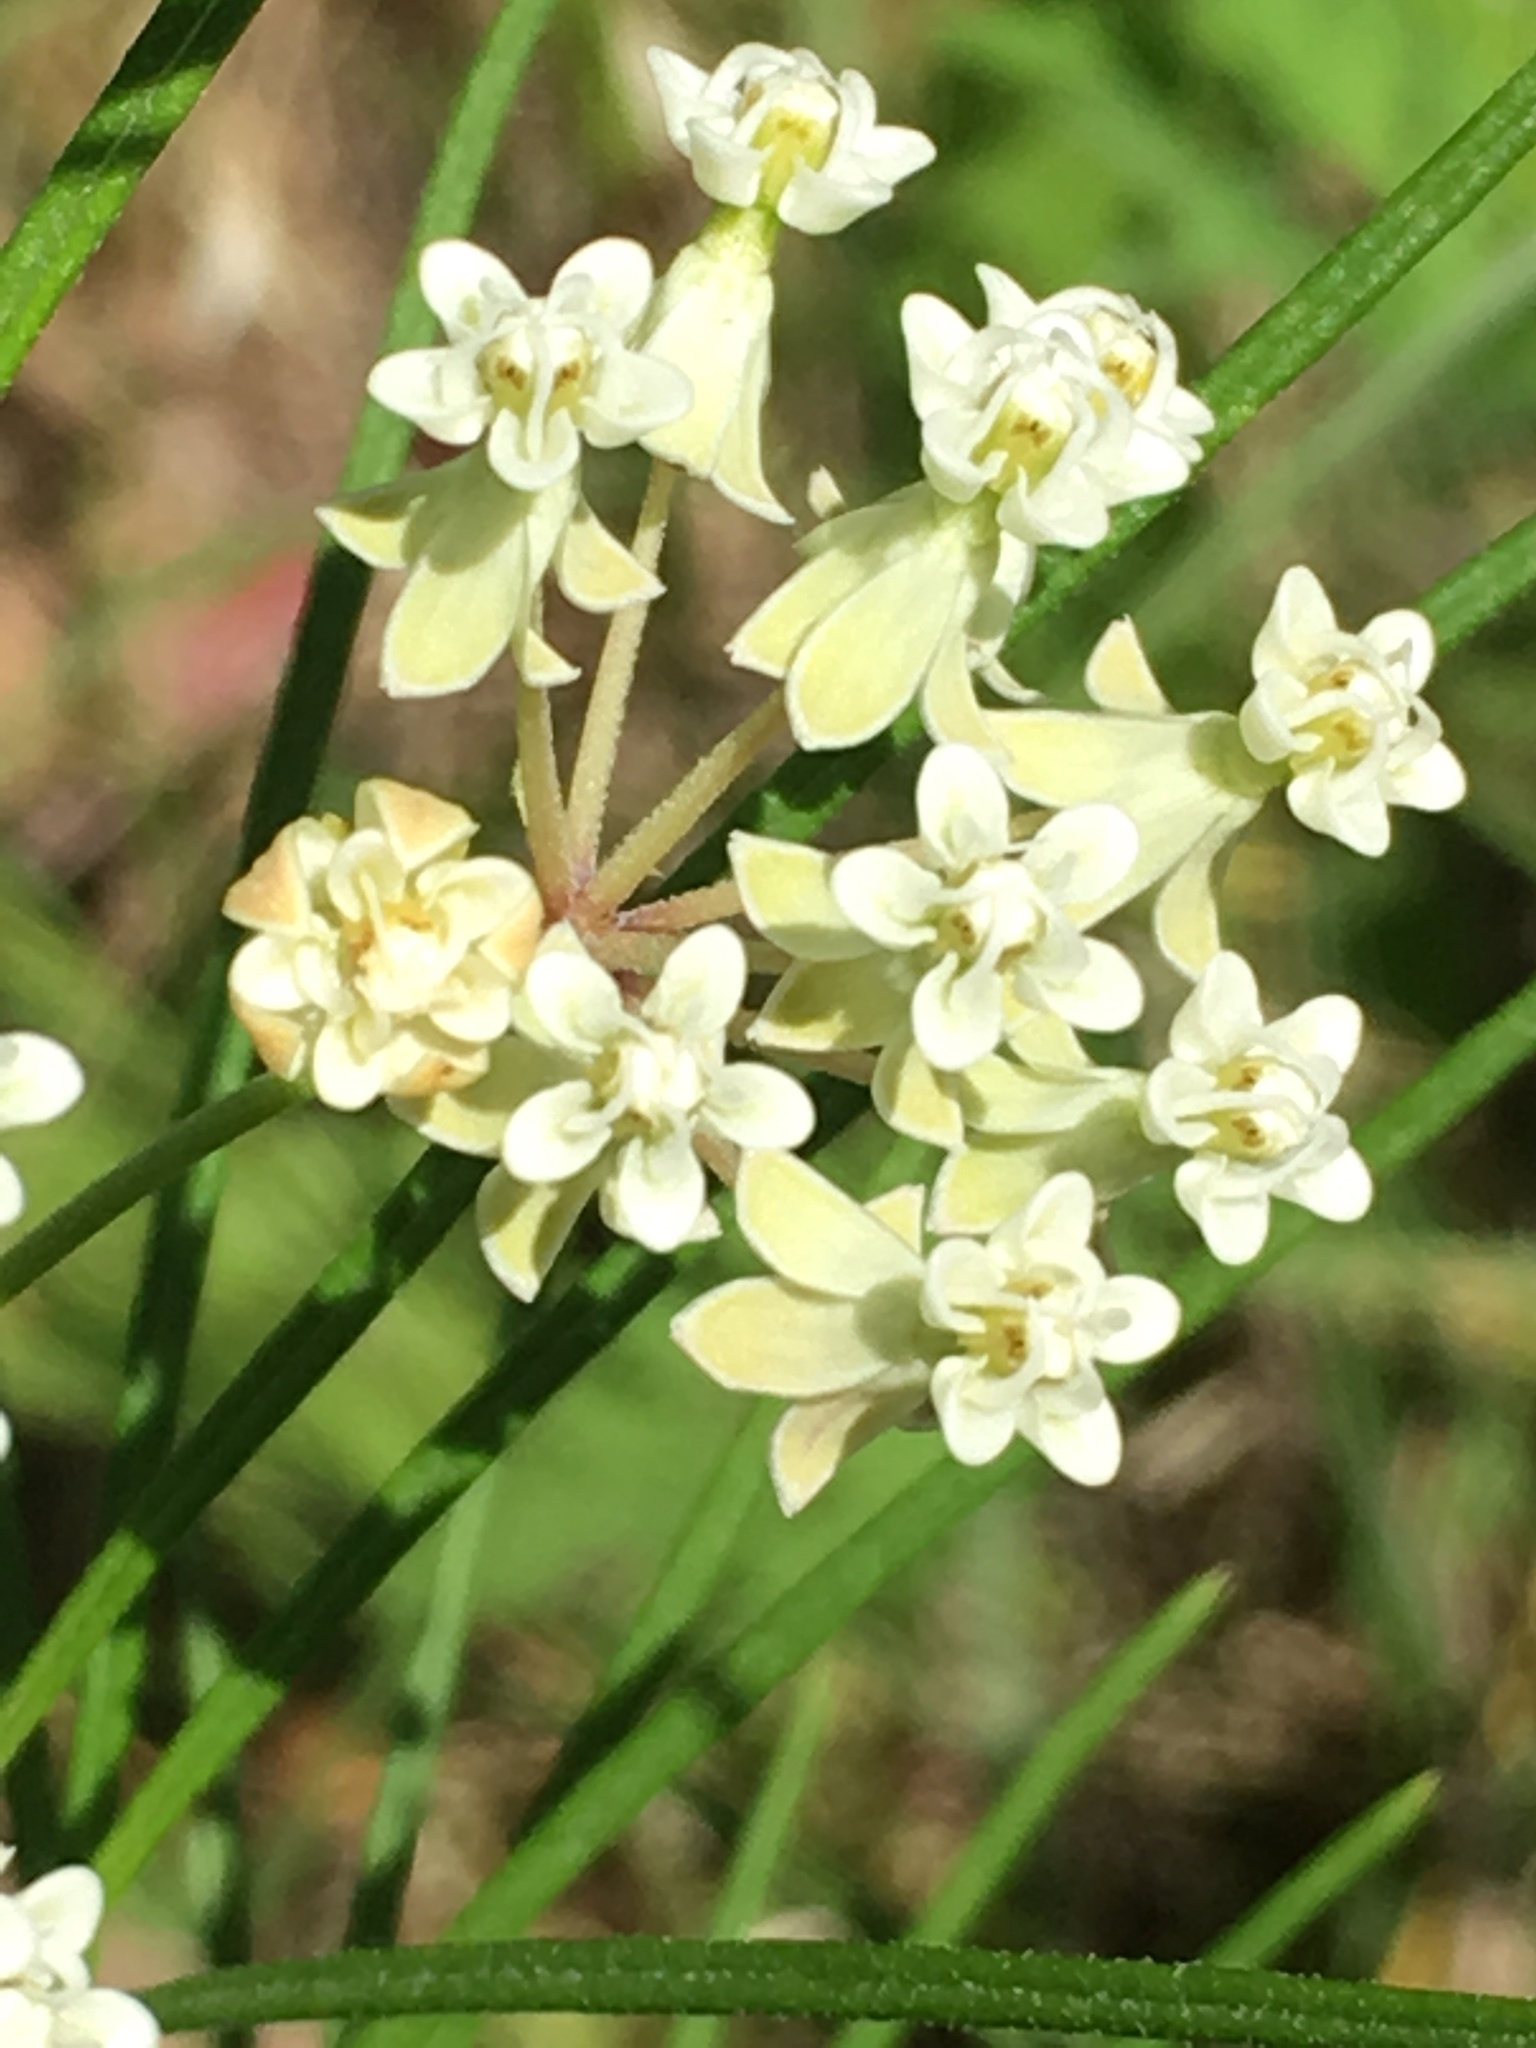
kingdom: Plantae
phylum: Tracheophyta
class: Magnoliopsida
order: Gentianales
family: Apocynaceae
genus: Asclepias
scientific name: Asclepias verticillata
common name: Eastern whorled milkweed
